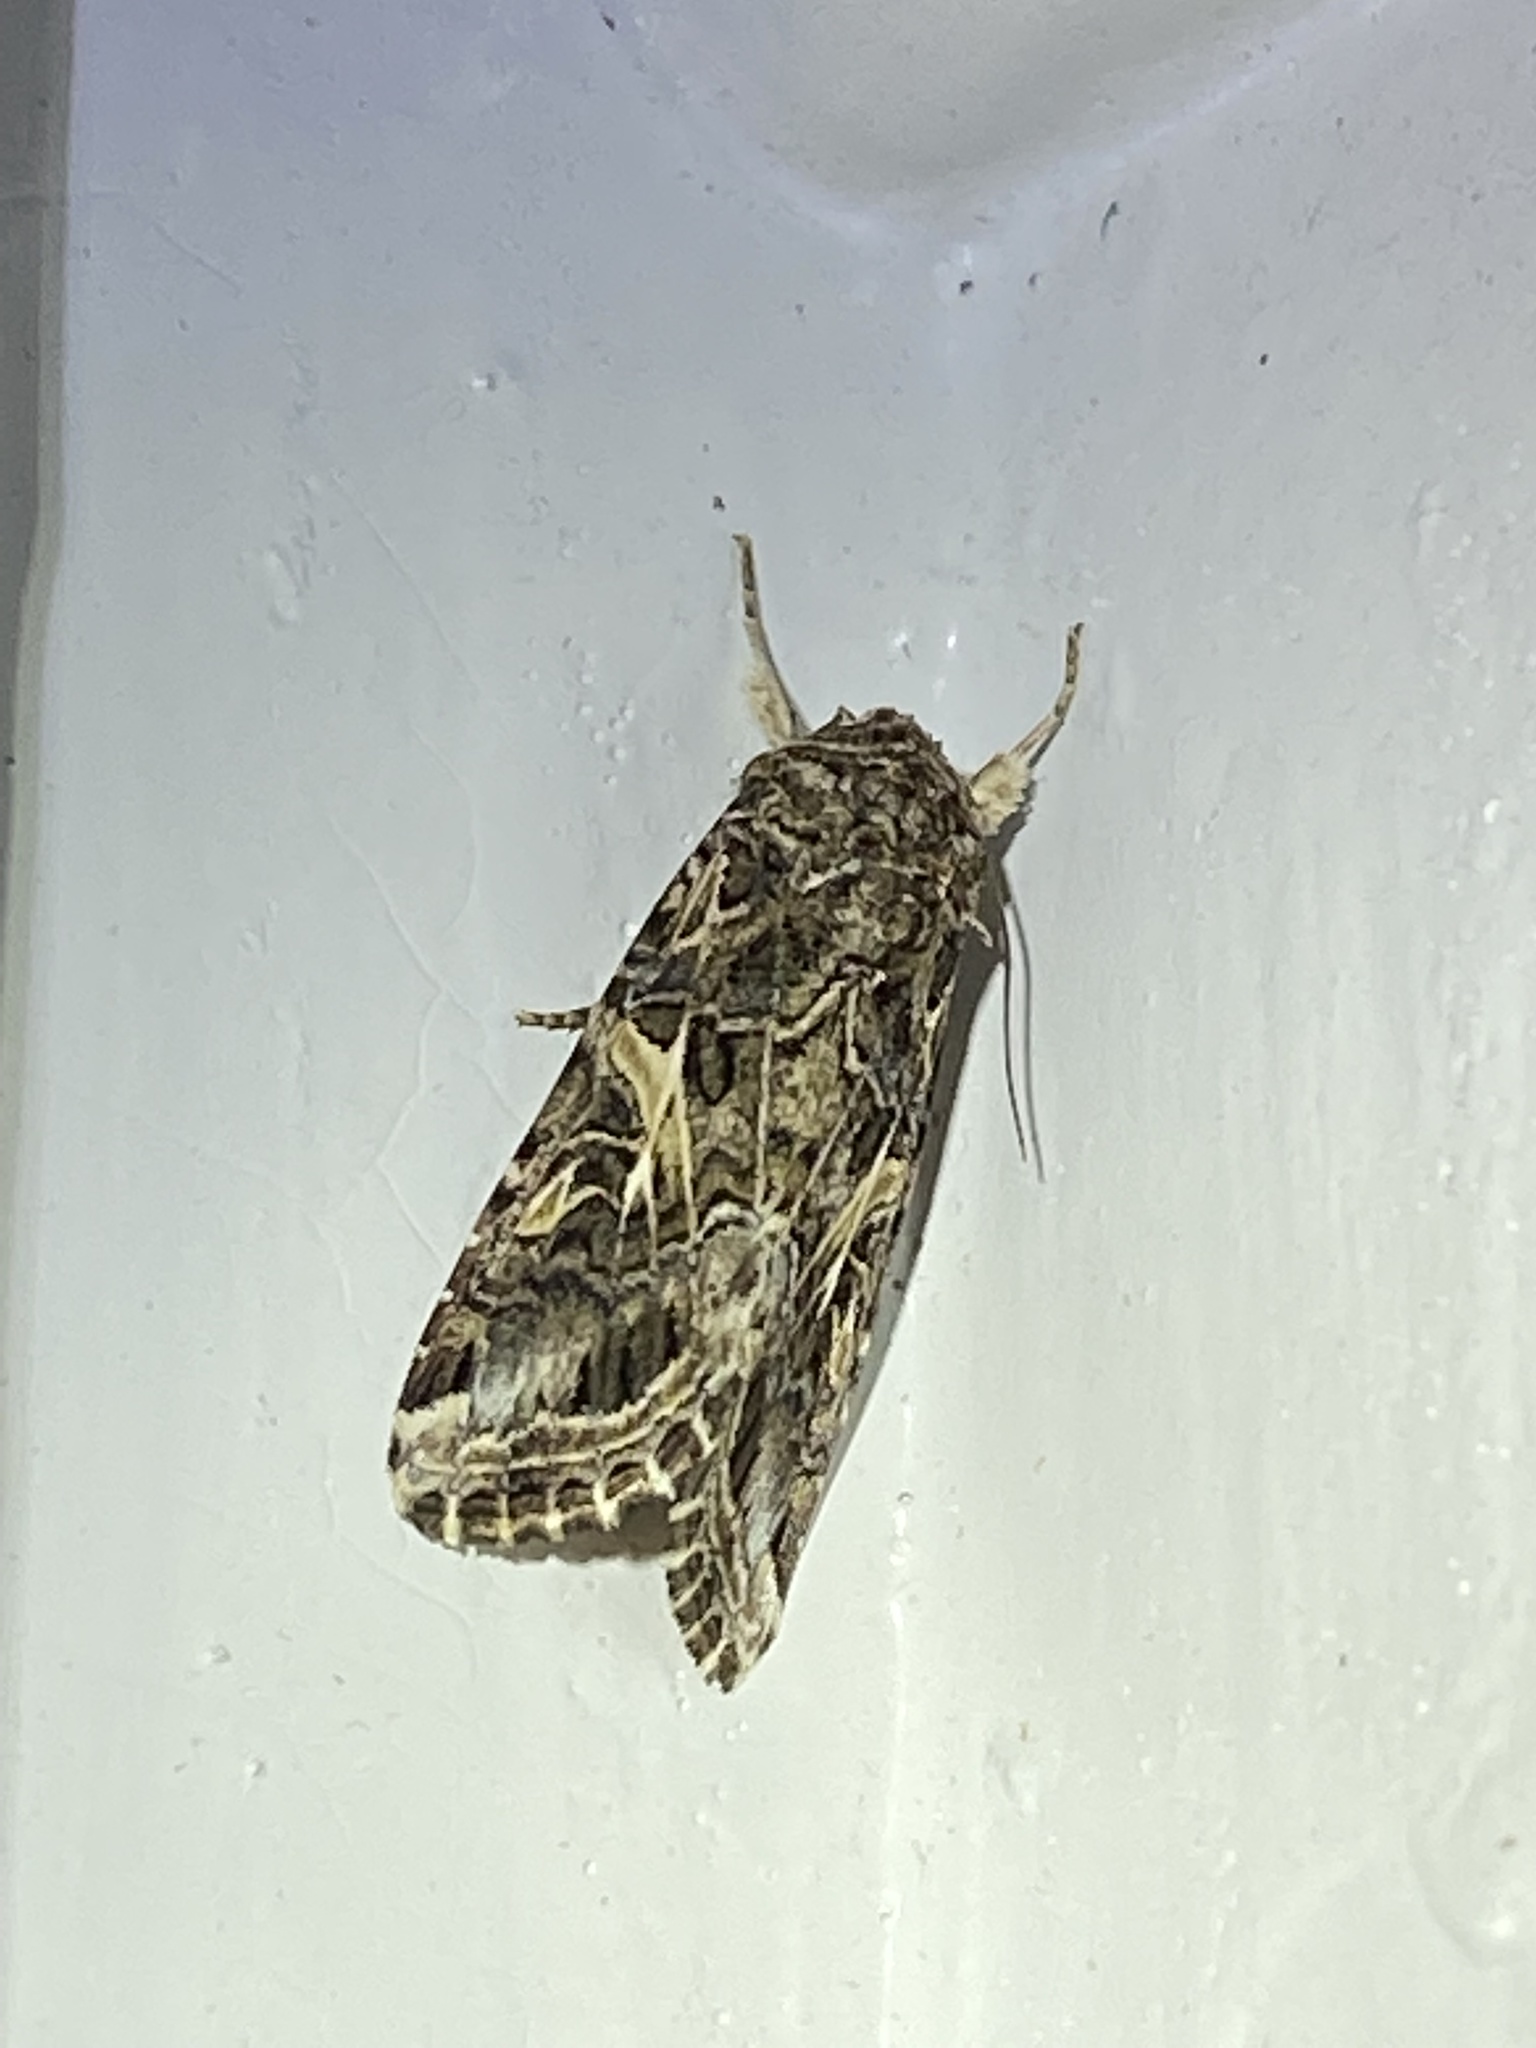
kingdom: Animalia
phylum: Arthropoda
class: Insecta
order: Lepidoptera
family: Noctuidae
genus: Spodoptera
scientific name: Spodoptera ornithogalli
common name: Yellow-striped armyworm
